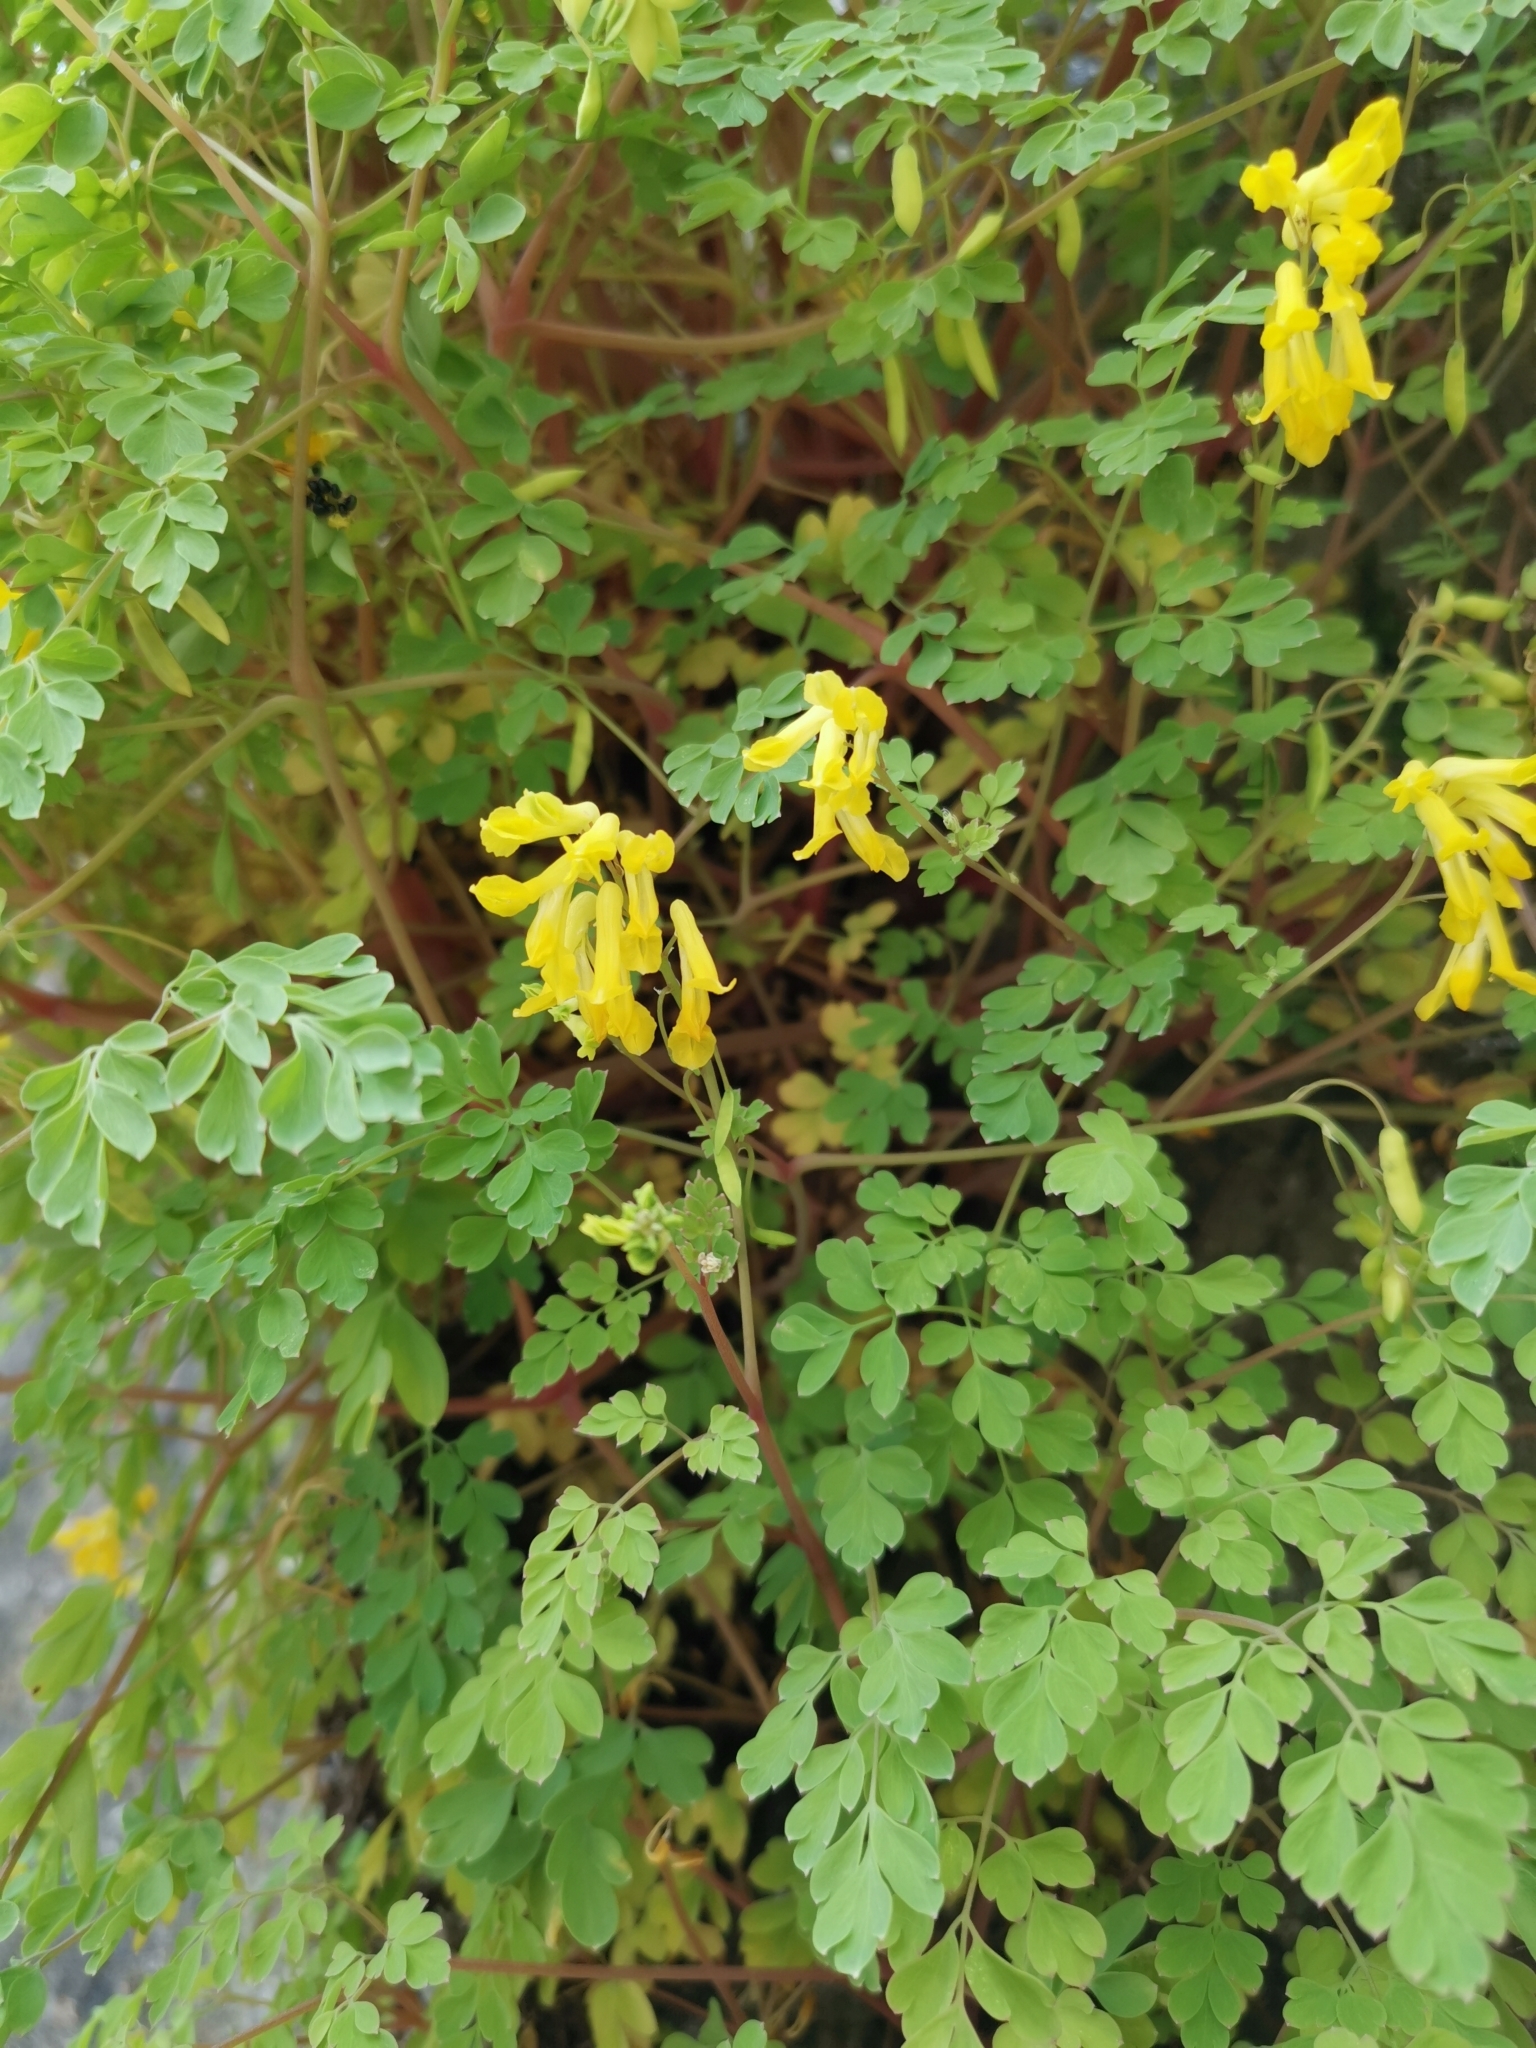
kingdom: Plantae
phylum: Tracheophyta
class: Magnoliopsida
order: Ranunculales
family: Papaveraceae
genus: Pseudofumaria
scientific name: Pseudofumaria lutea
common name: Yellow corydalis
